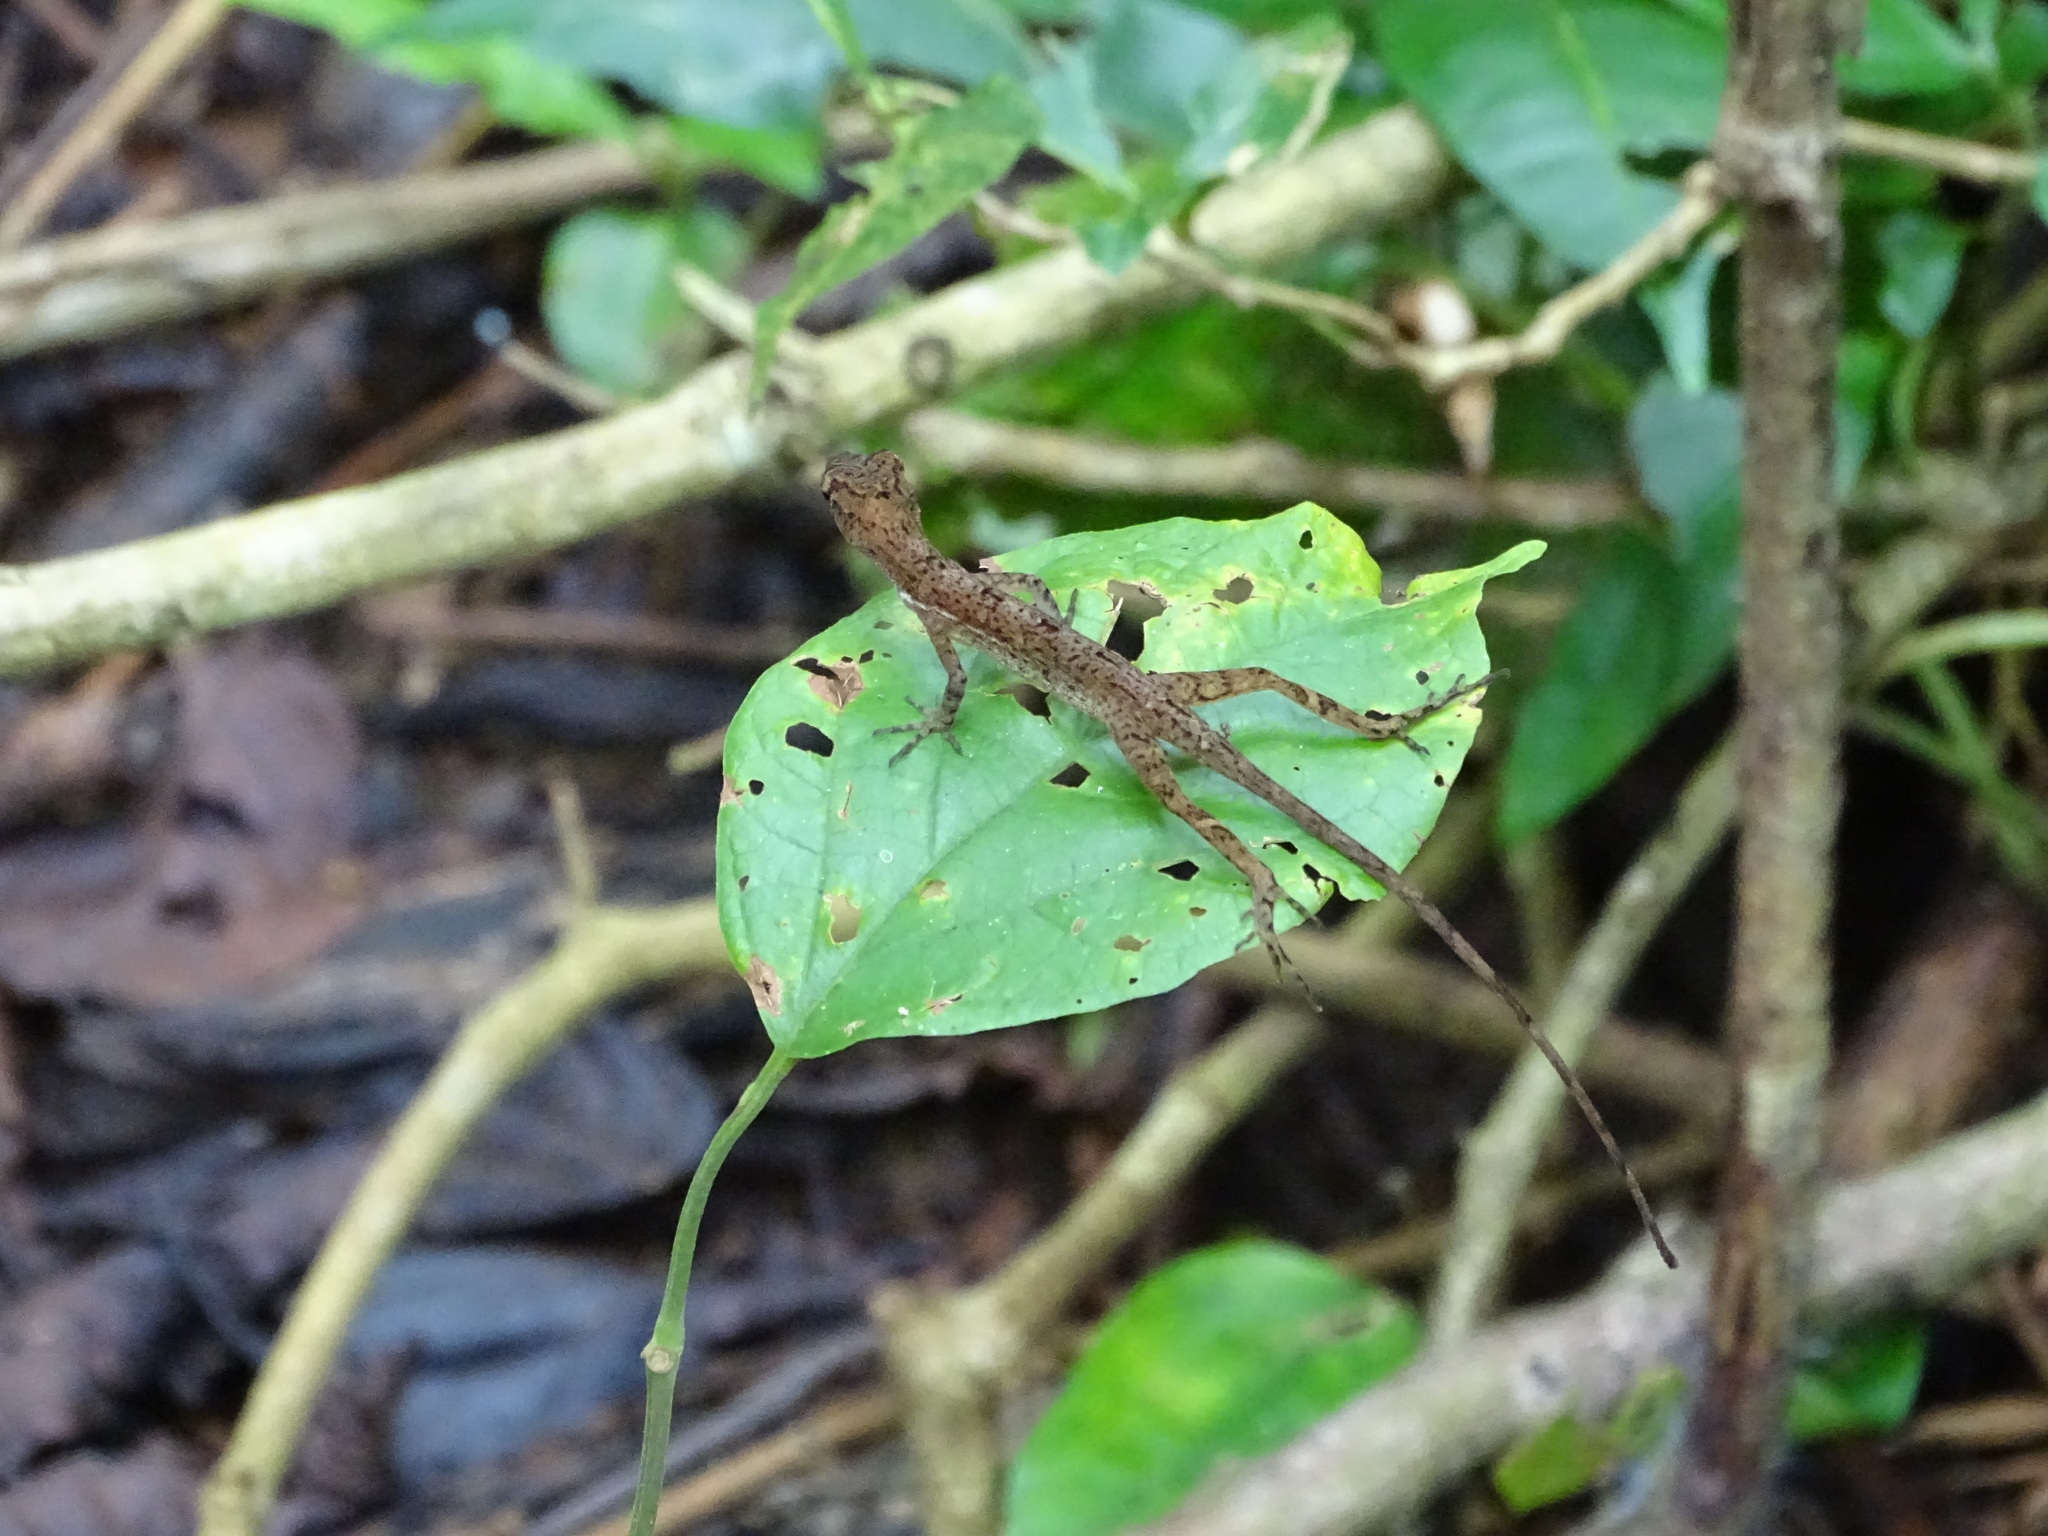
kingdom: Animalia
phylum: Chordata
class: Squamata
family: Dactyloidae
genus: Anolis
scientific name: Anolis osa
